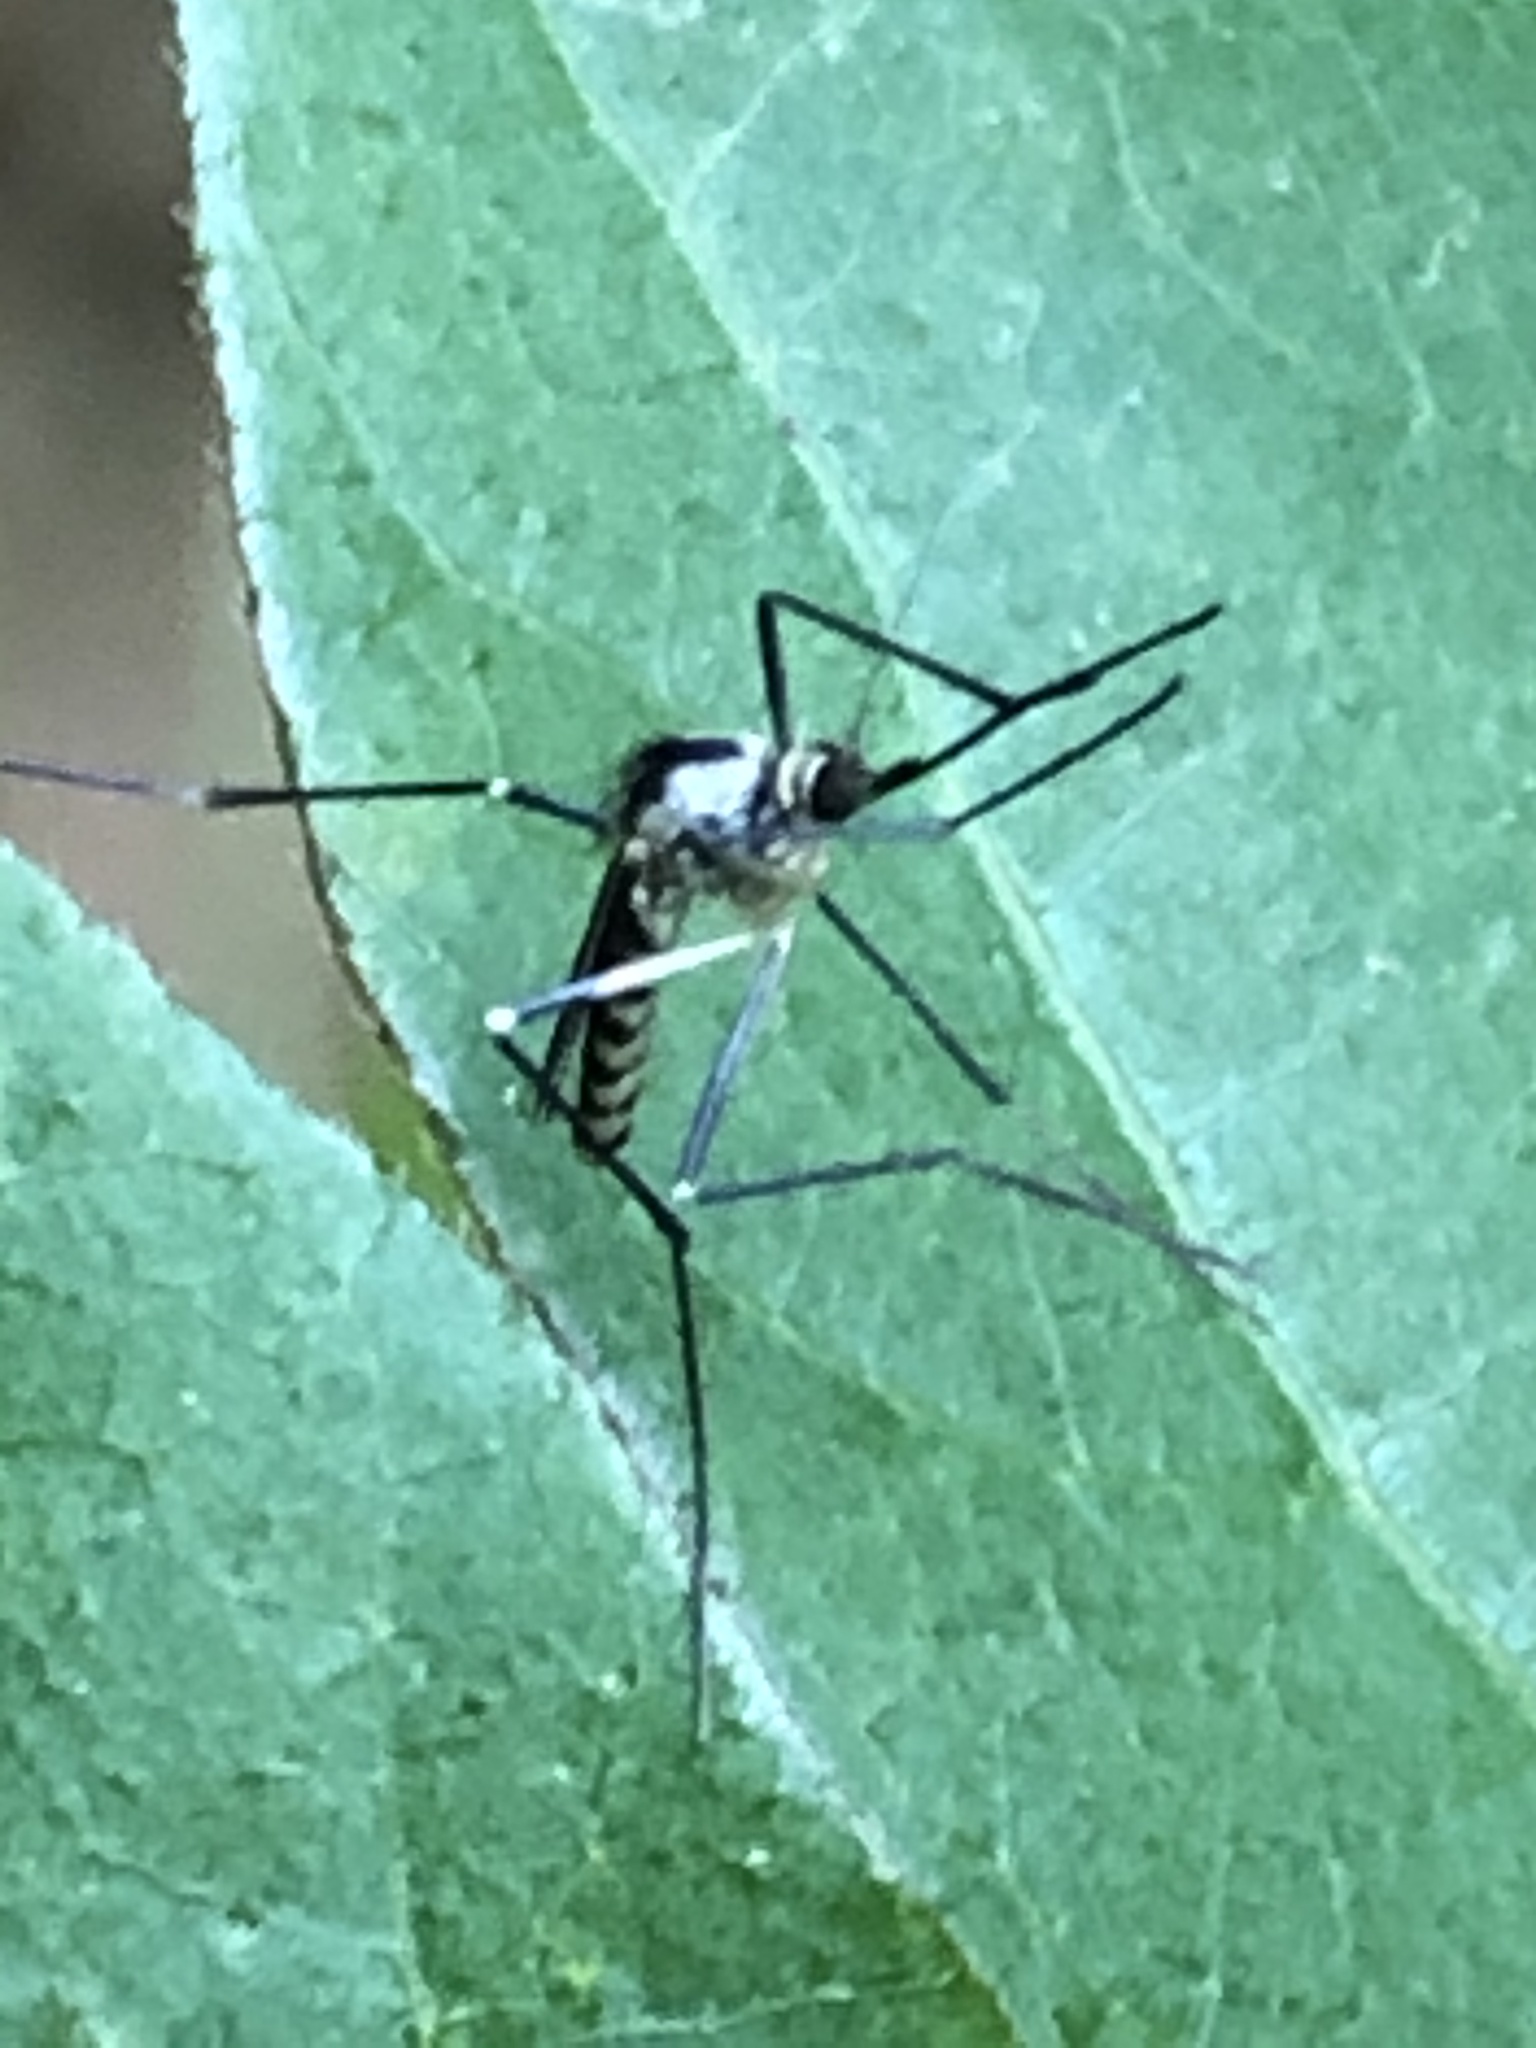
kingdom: Animalia
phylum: Arthropoda
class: Insecta
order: Diptera
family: Culicidae
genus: Aedes
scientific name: Aedes hendersoni
